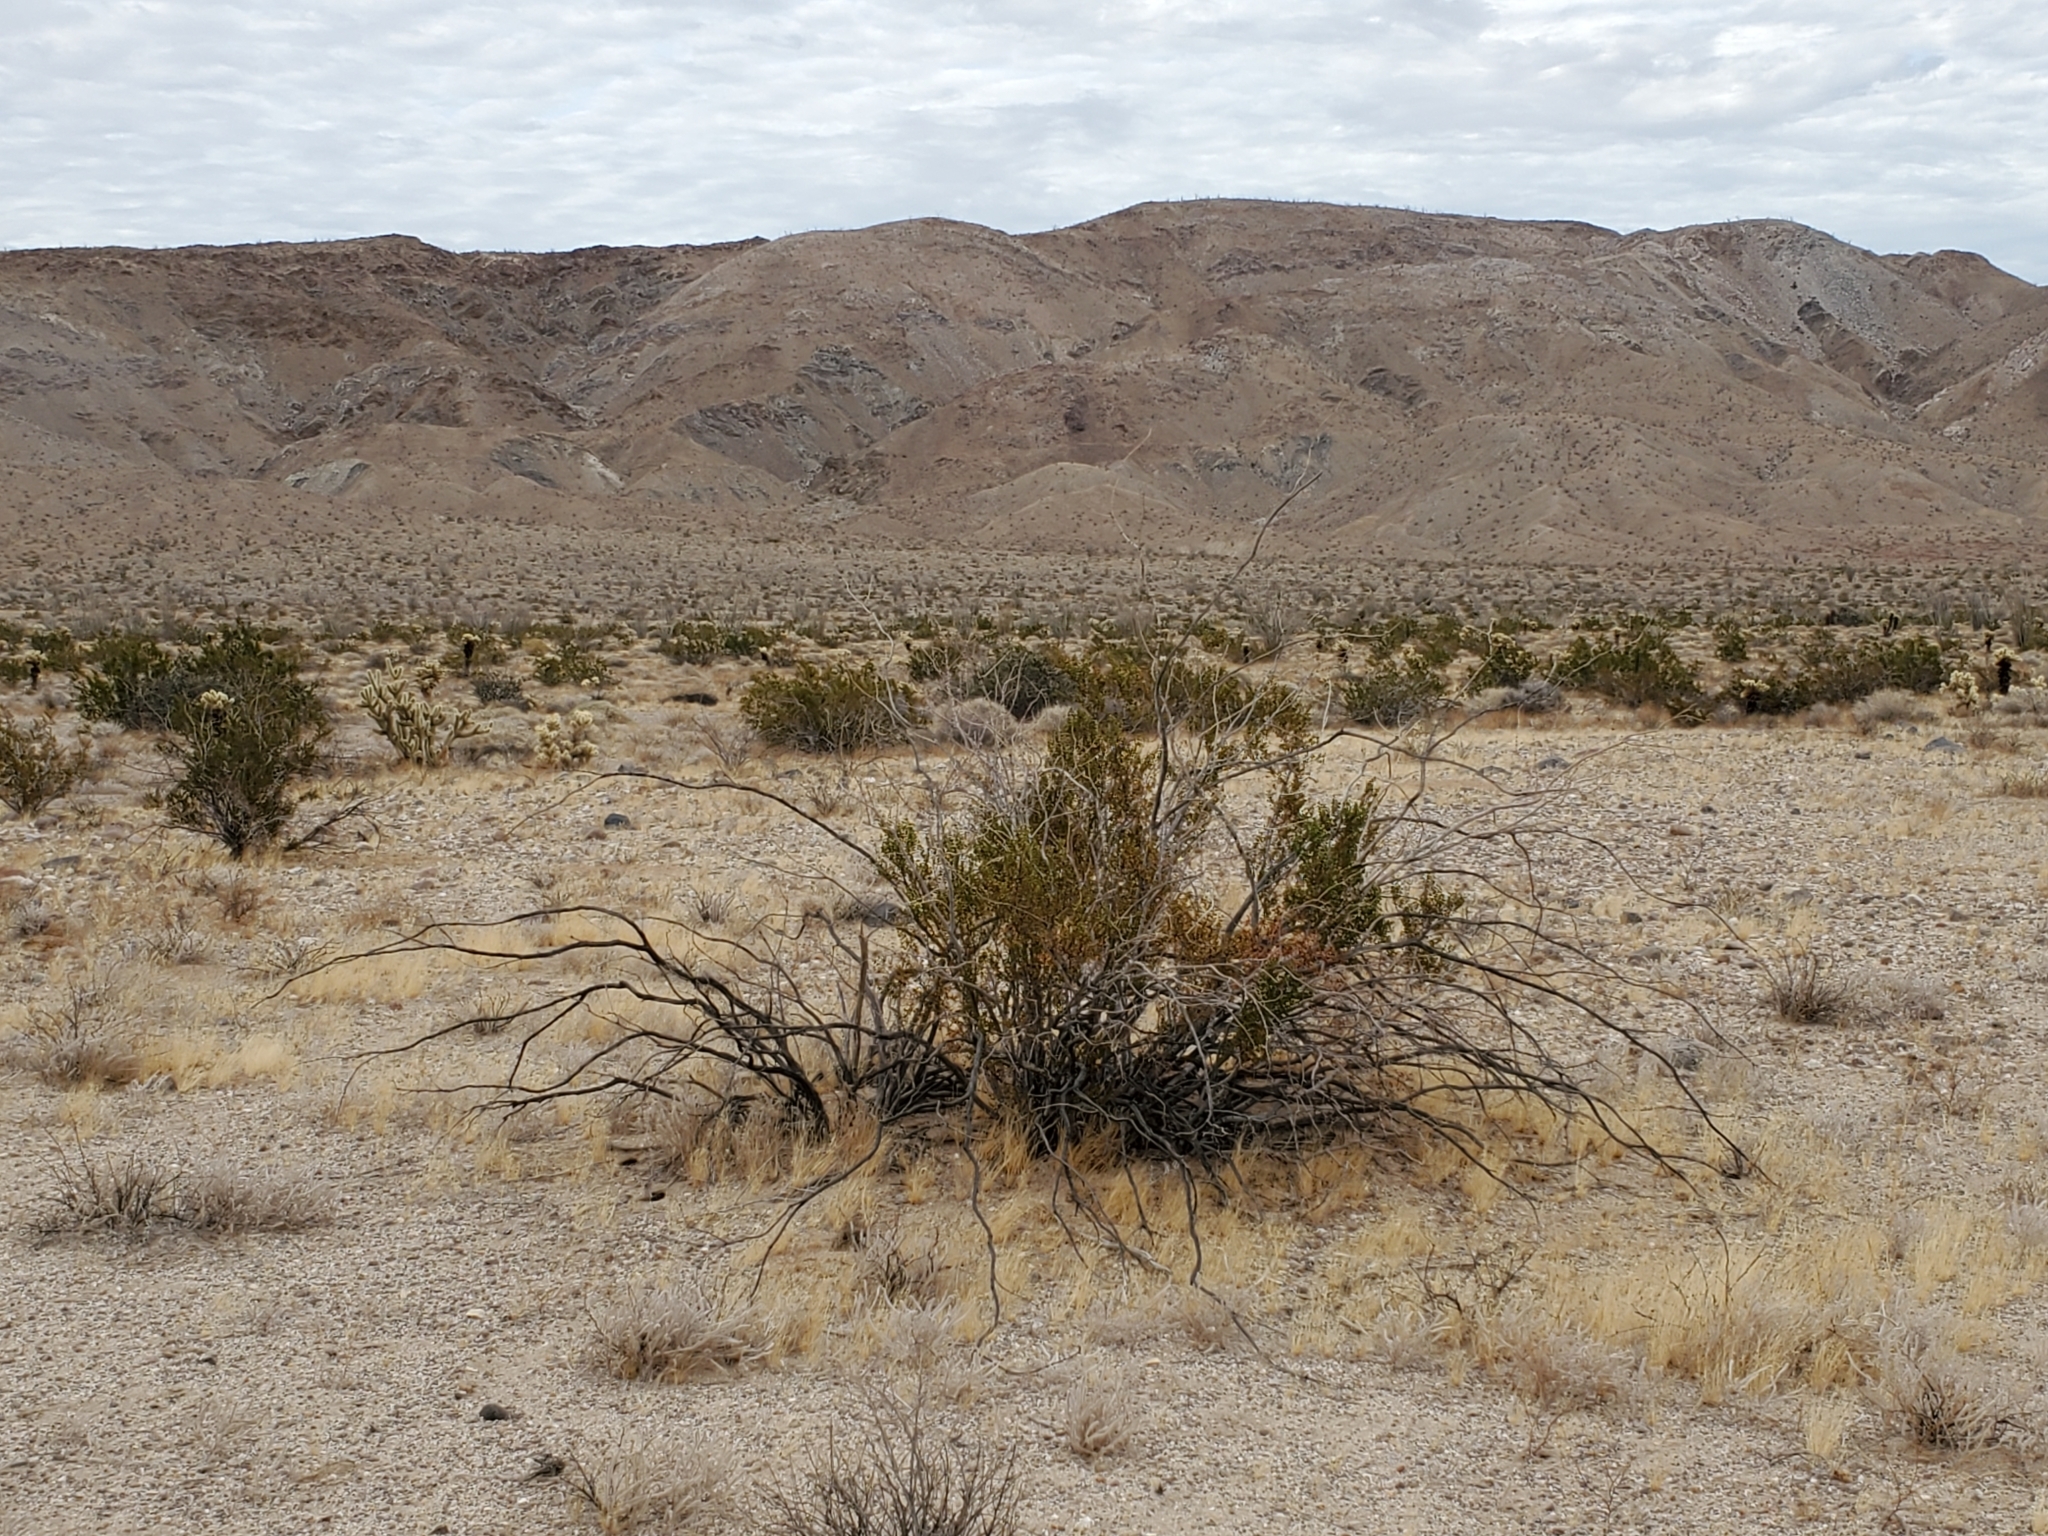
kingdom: Plantae
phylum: Tracheophyta
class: Magnoliopsida
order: Zygophyllales
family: Zygophyllaceae
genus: Larrea
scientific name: Larrea tridentata
